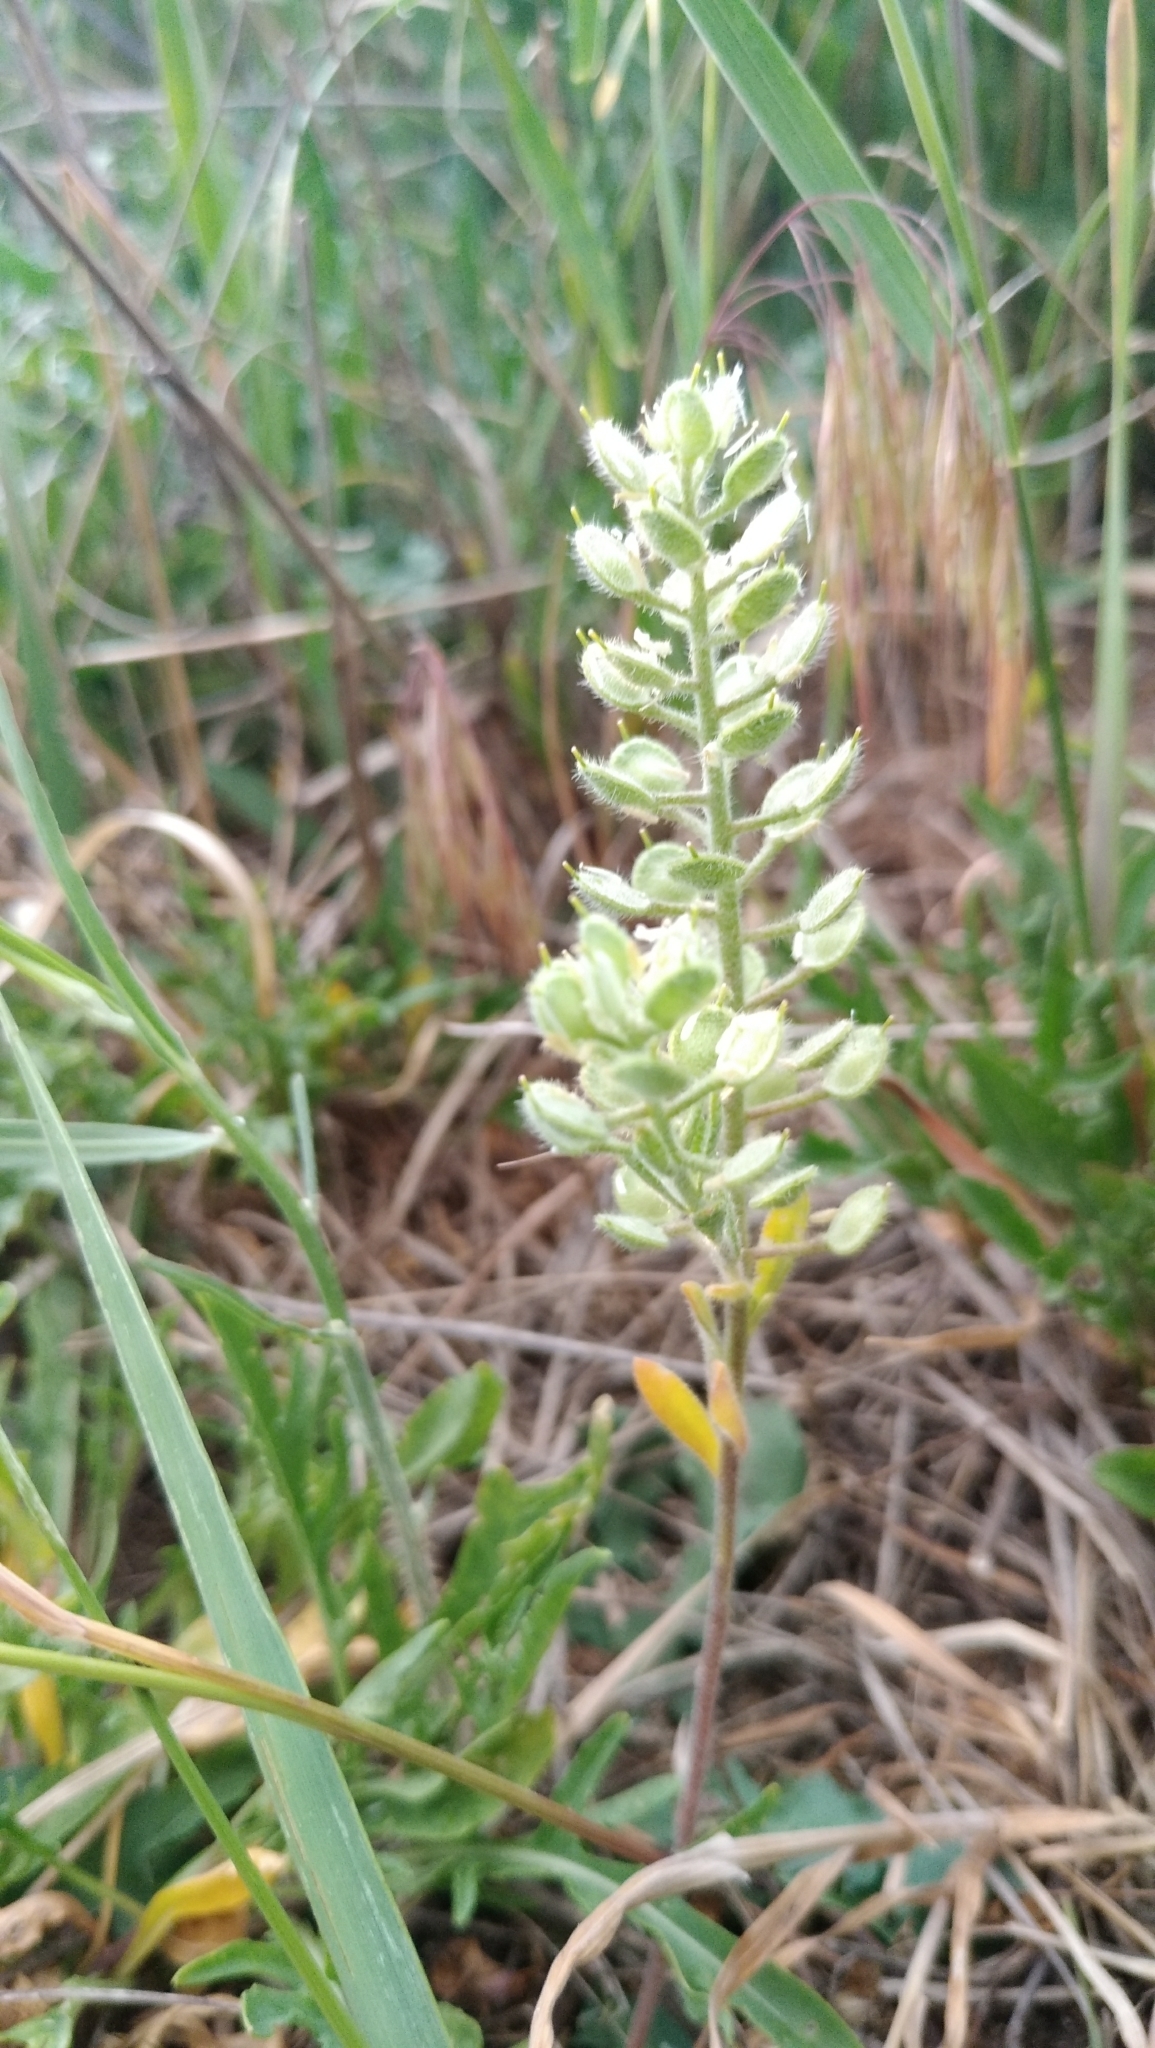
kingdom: Plantae
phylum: Tracheophyta
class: Magnoliopsida
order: Brassicales
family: Brassicaceae
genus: Alyssum
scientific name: Alyssum hirsutum
